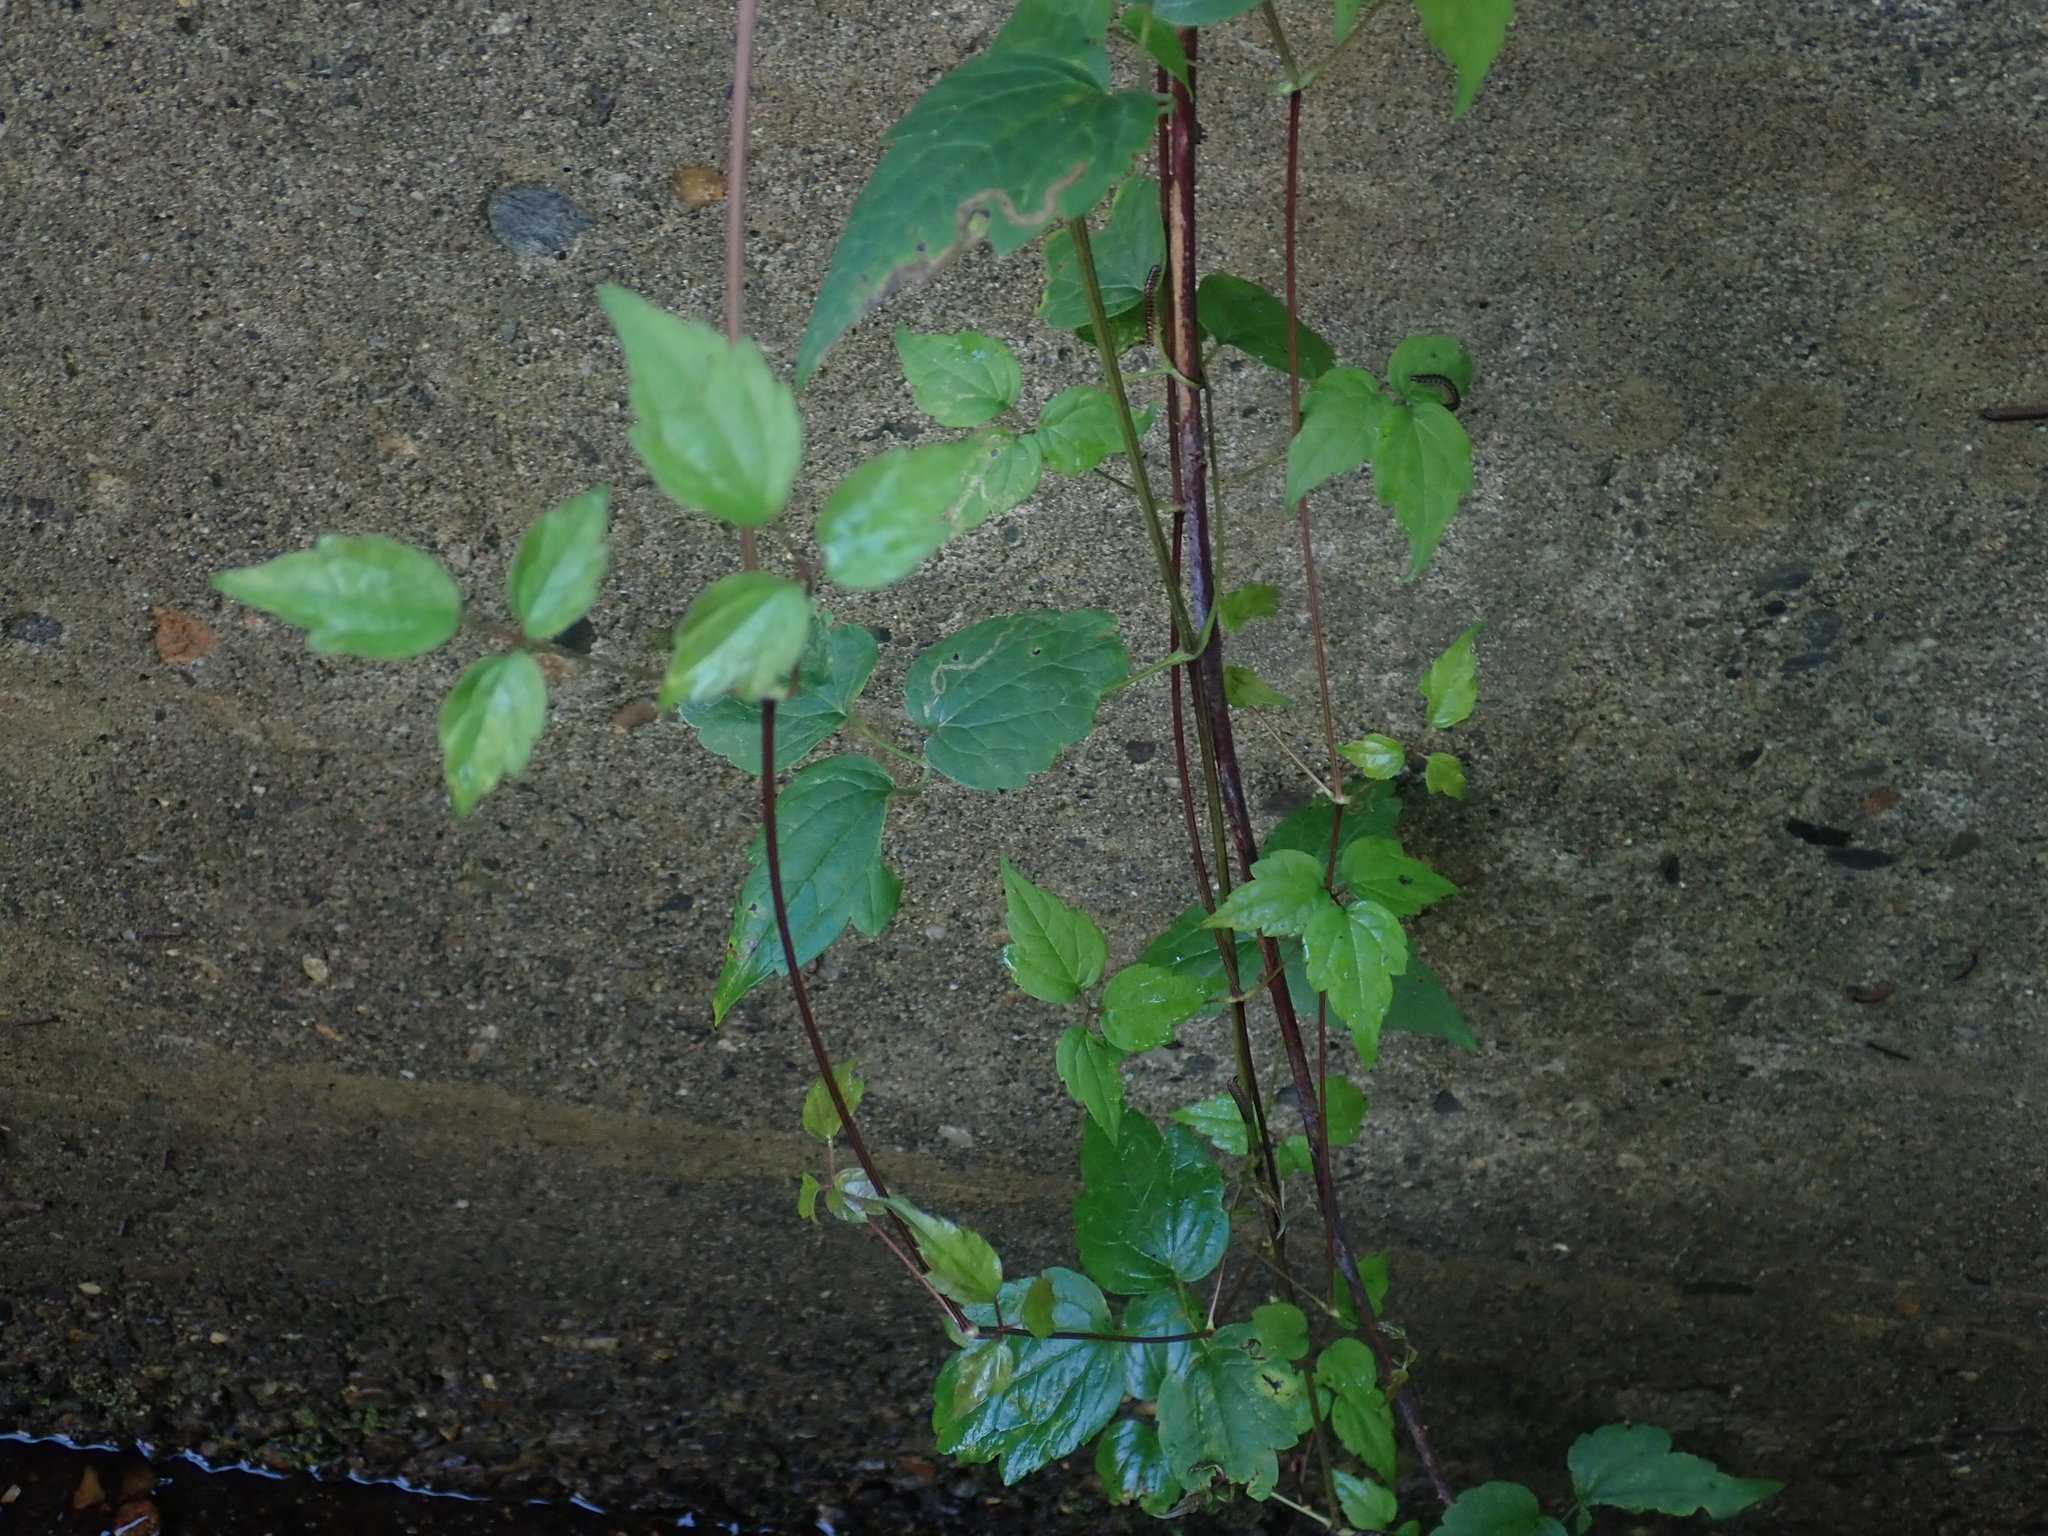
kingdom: Plantae
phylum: Tracheophyta
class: Magnoliopsida
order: Ranunculales
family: Ranunculaceae
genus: Clematis
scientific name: Clematis virginiana
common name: Virgin's-bower
